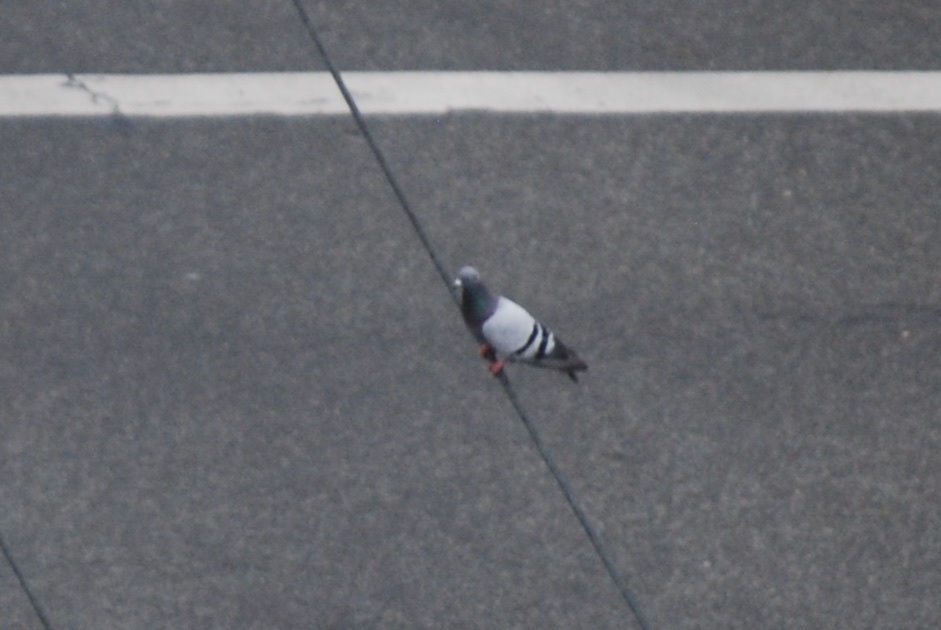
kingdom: Animalia
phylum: Chordata
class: Aves
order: Columbiformes
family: Columbidae
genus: Columba
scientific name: Columba livia
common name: Rock pigeon
